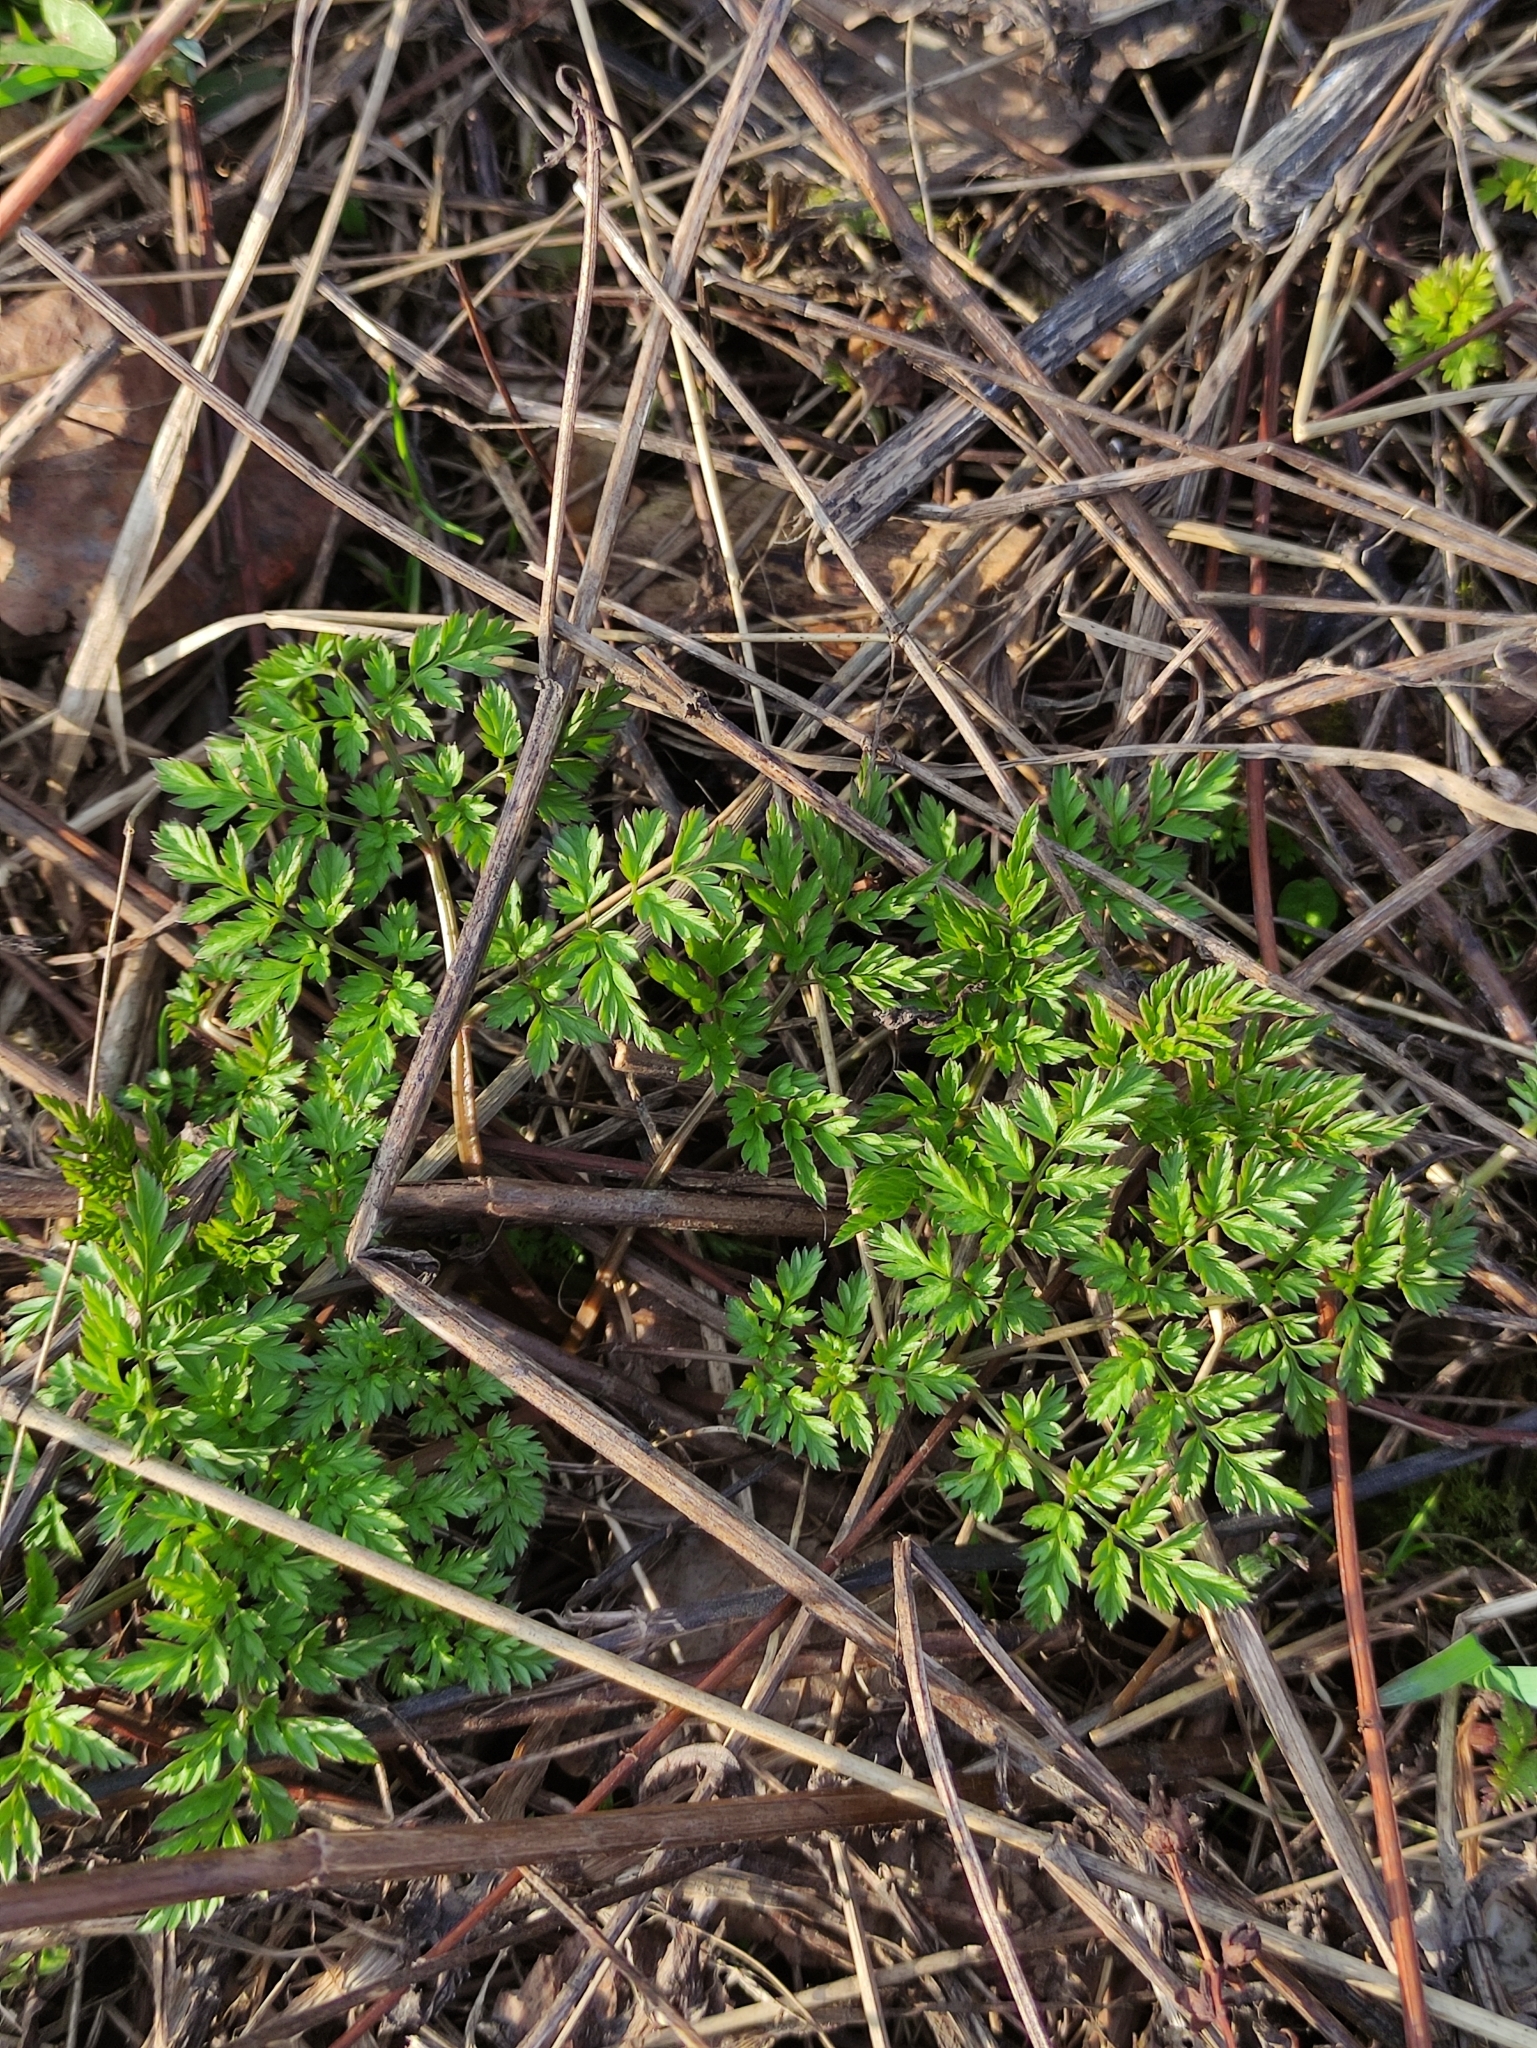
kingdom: Plantae
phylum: Tracheophyta
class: Magnoliopsida
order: Apiales
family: Apiaceae
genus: Anthriscus
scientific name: Anthriscus sylvestris
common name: Cow parsley
